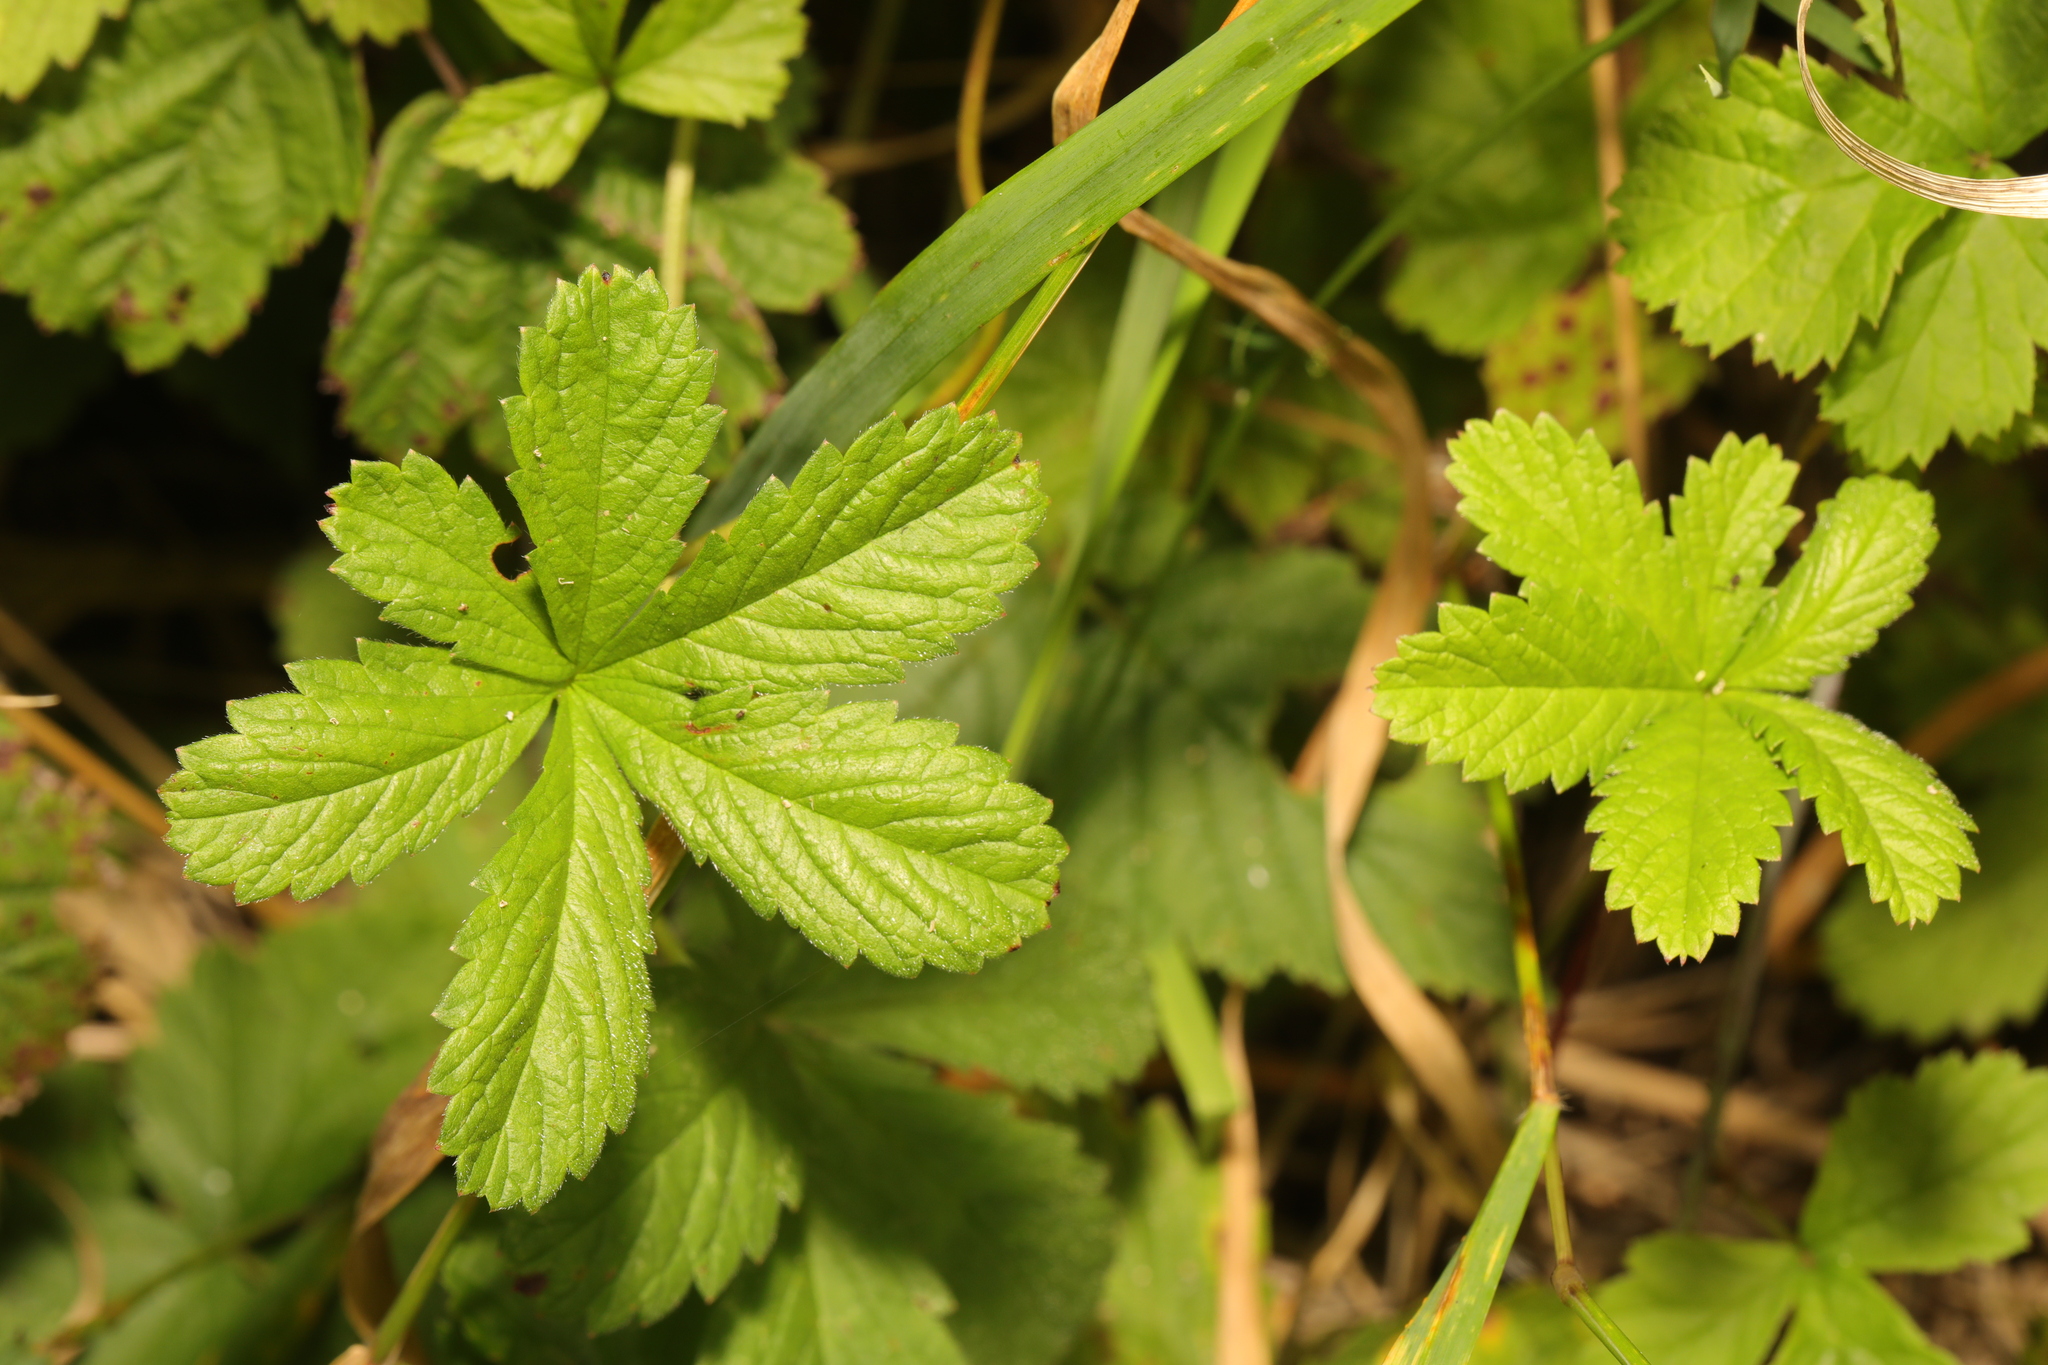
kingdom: Plantae
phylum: Tracheophyta
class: Magnoliopsida
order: Rosales
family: Rosaceae
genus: Potentilla
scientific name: Potentilla reptans
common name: Creeping cinquefoil
